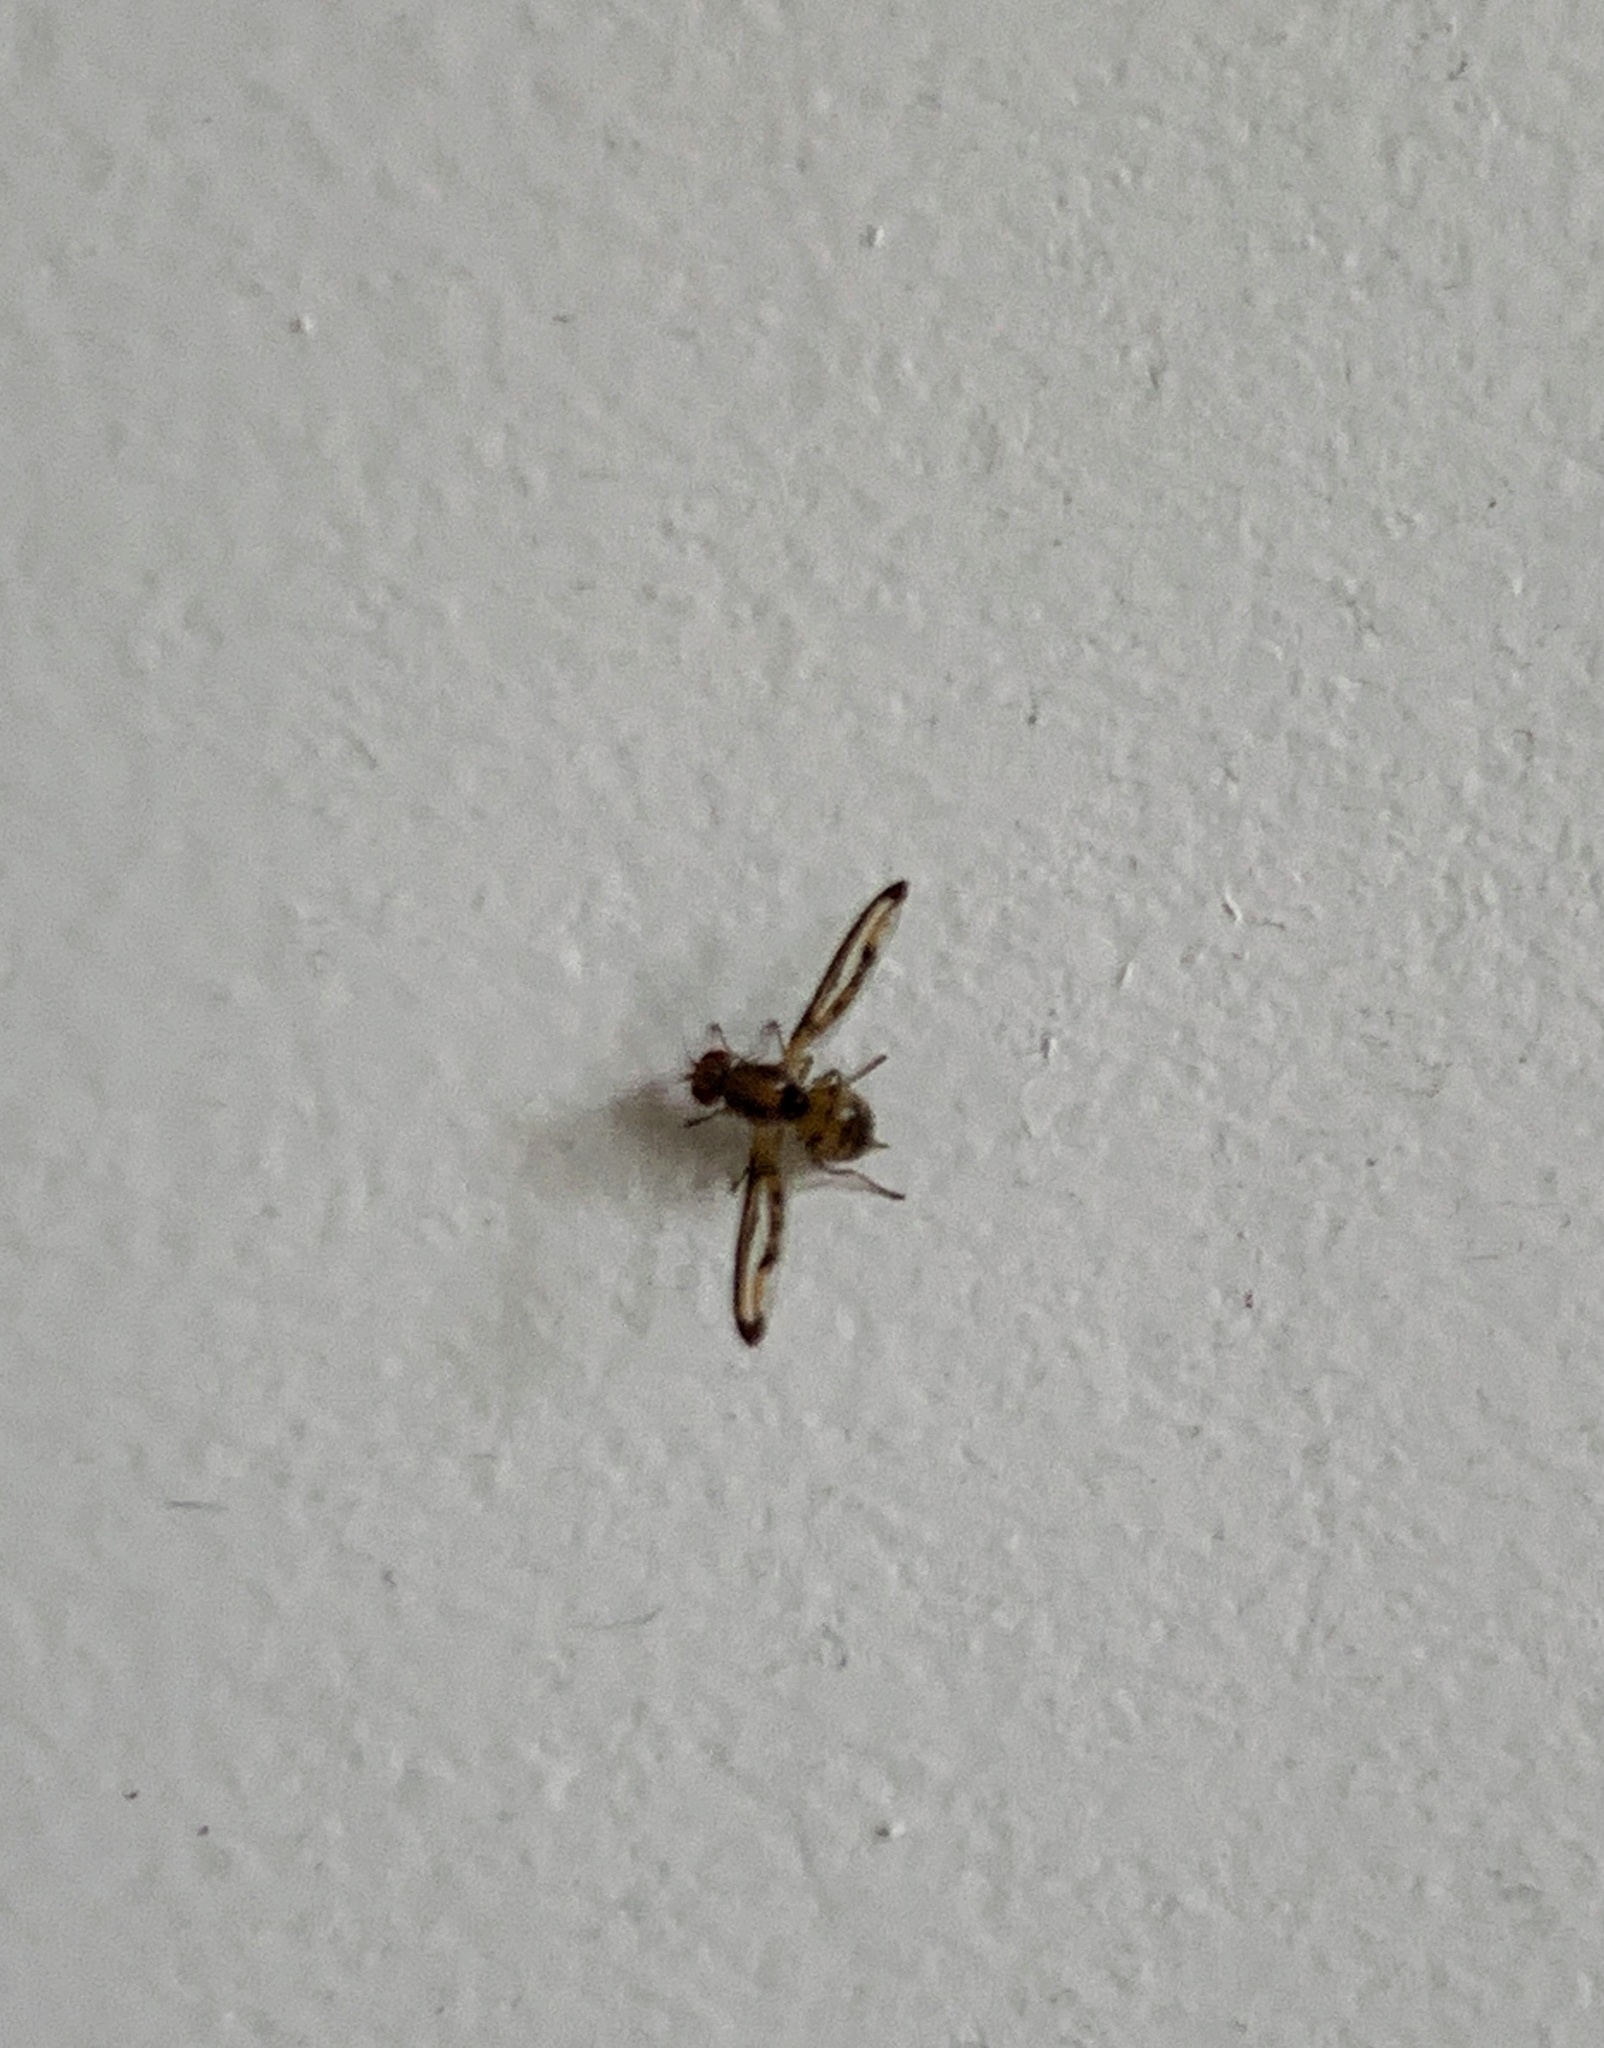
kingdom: Animalia
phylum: Arthropoda
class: Insecta
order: Diptera
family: Pallopteridae
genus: Toxonevra
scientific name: Toxonevra muliebris
